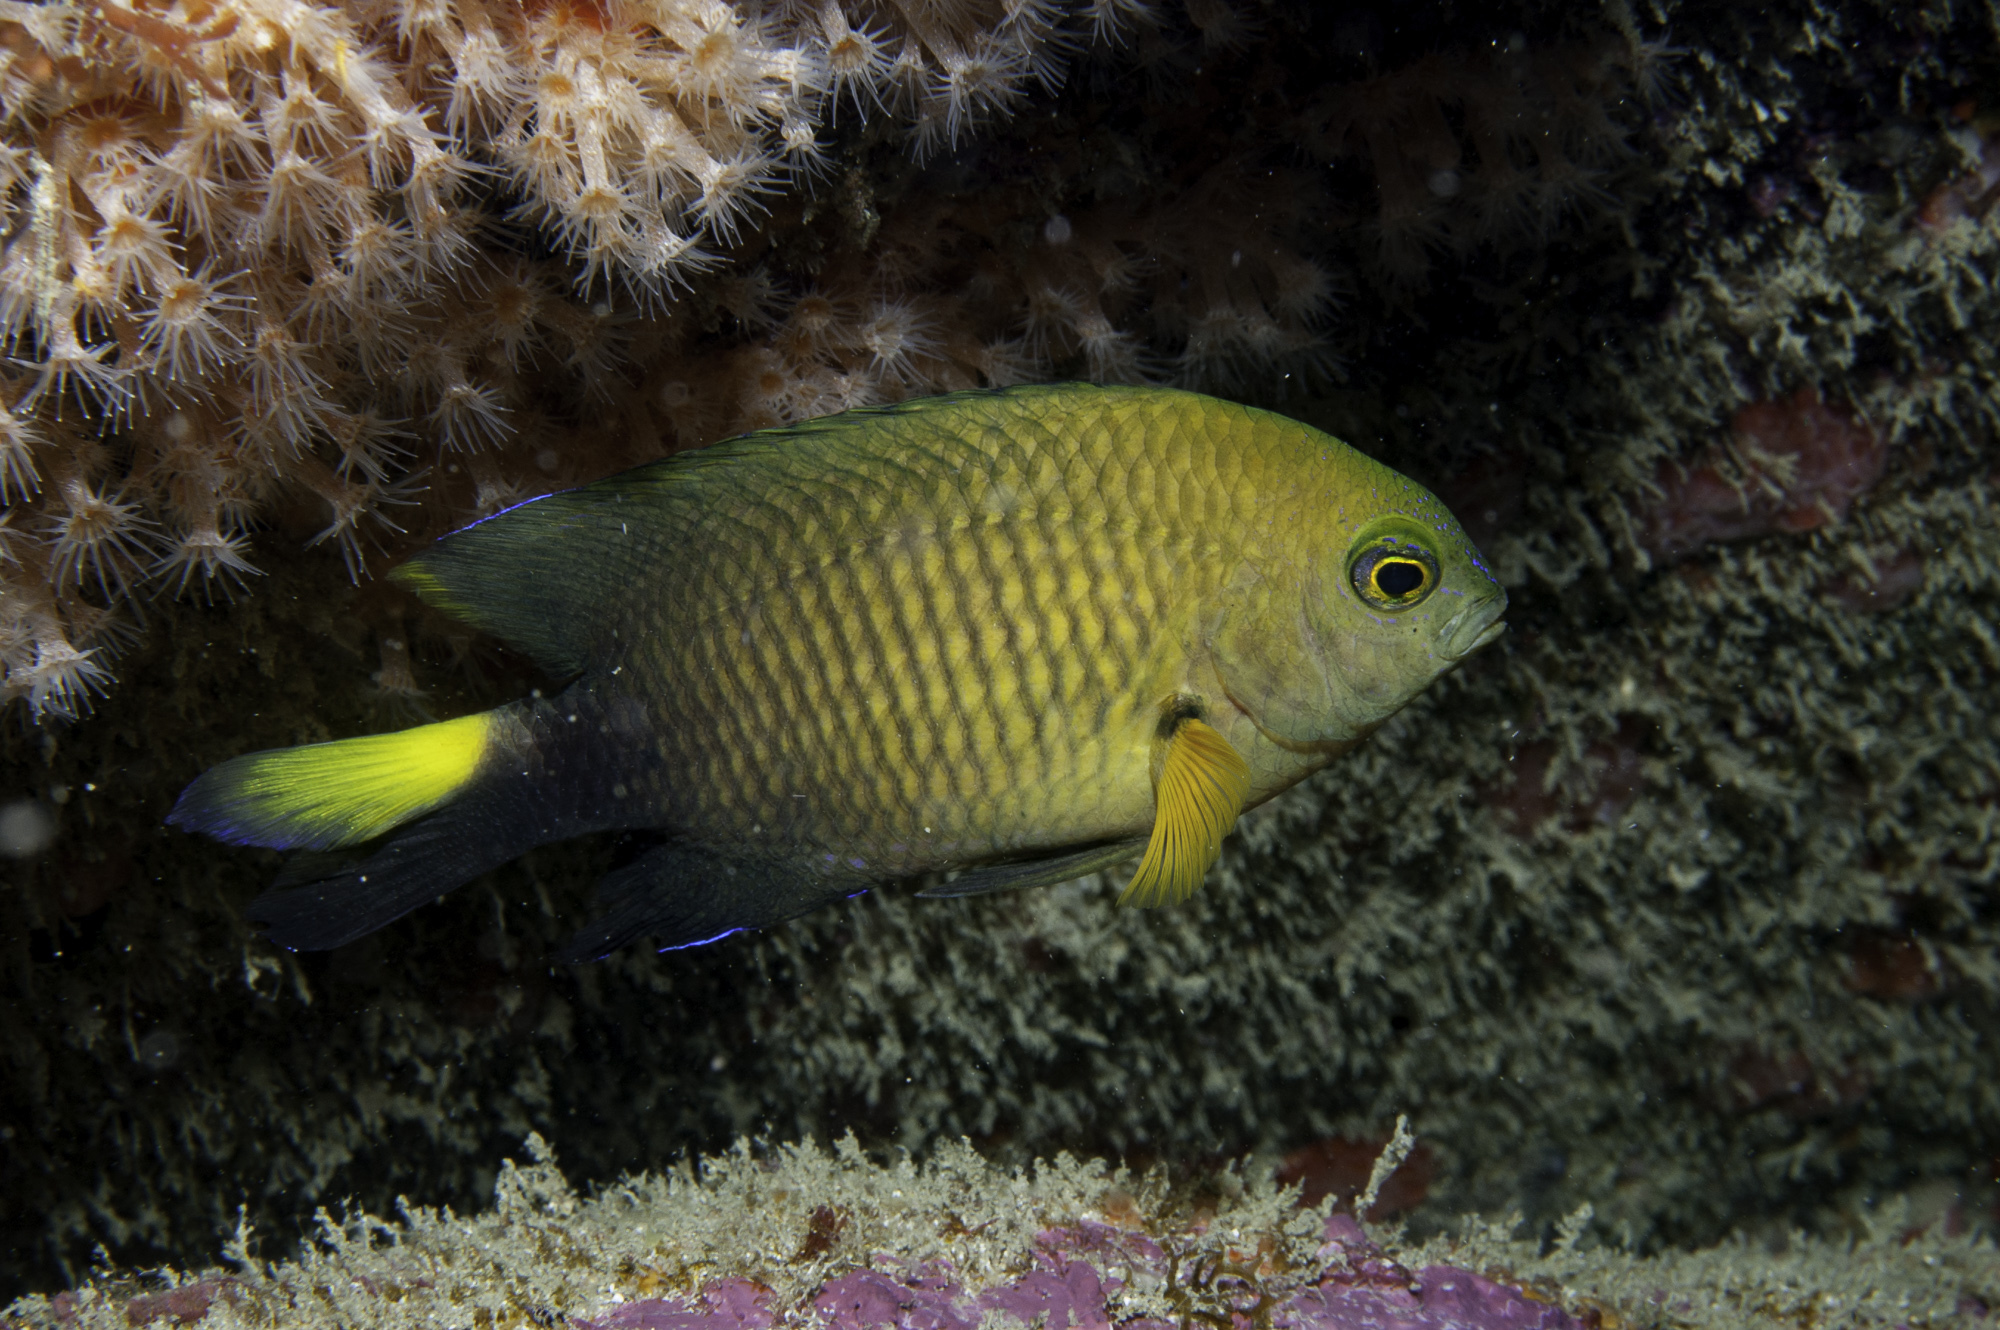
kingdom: Animalia
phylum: Chordata
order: Perciformes
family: Pomacentridae
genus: Stegastes
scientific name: Stegastes pictus
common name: Yellowtip damselfish
